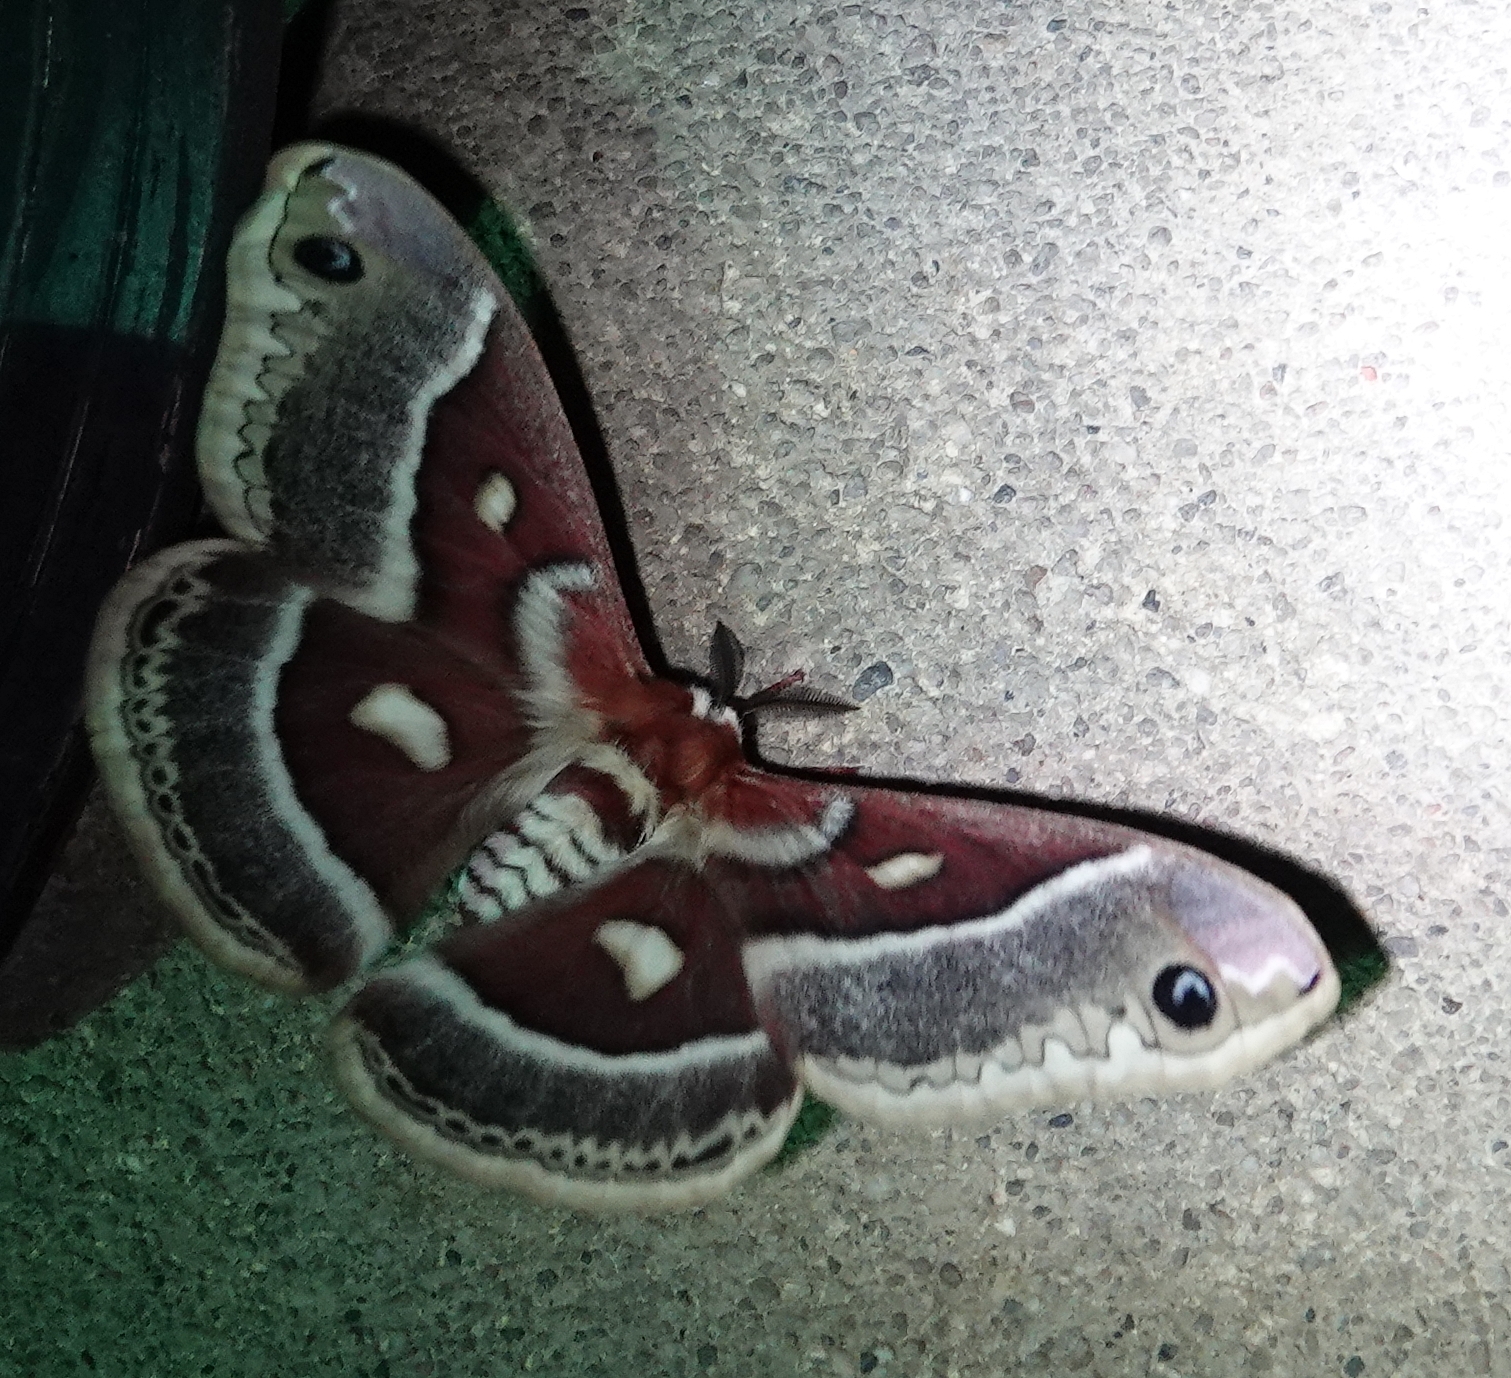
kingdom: Animalia
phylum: Arthropoda
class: Insecta
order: Lepidoptera
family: Saturniidae
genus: Hyalophora
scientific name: Hyalophora gloveri
